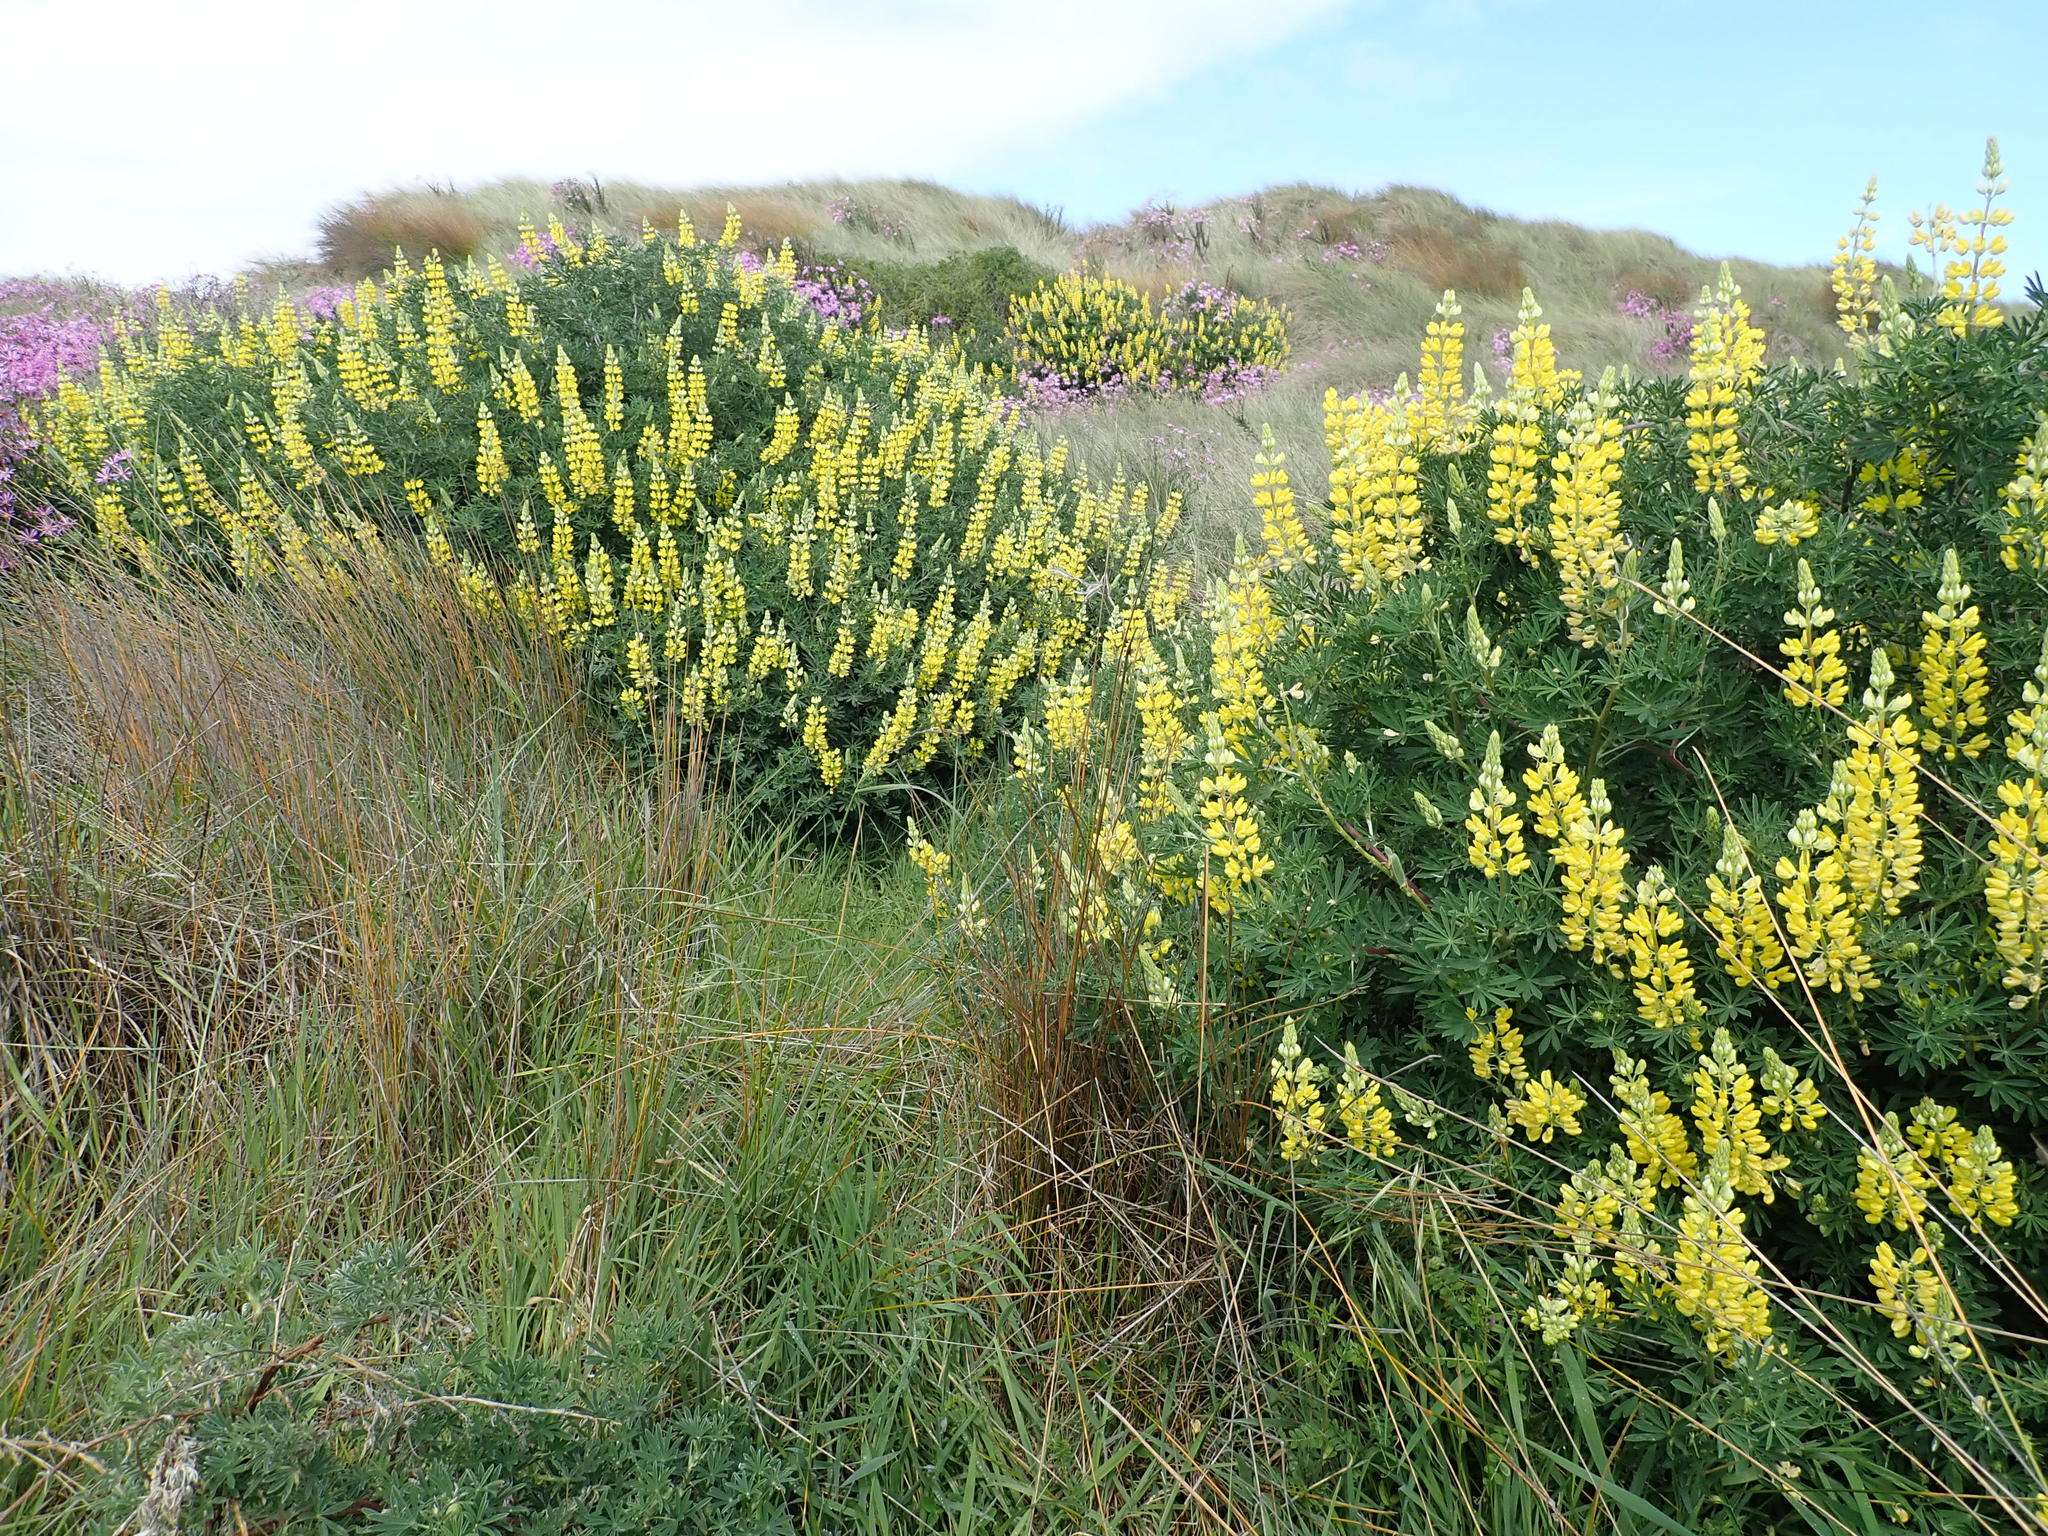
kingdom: Plantae
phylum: Tracheophyta
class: Magnoliopsida
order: Fabales
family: Fabaceae
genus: Lupinus
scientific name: Lupinus arboreus
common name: Yellow bush lupine
